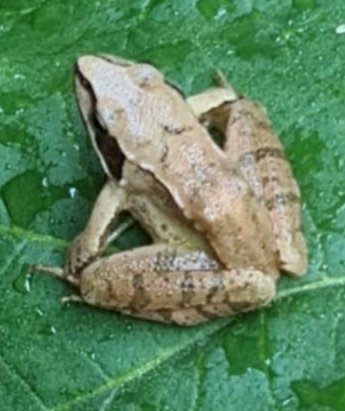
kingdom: Animalia
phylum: Chordata
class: Amphibia
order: Anura
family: Ranidae
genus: Rana
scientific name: Rana dalmatina
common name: Agile frog
